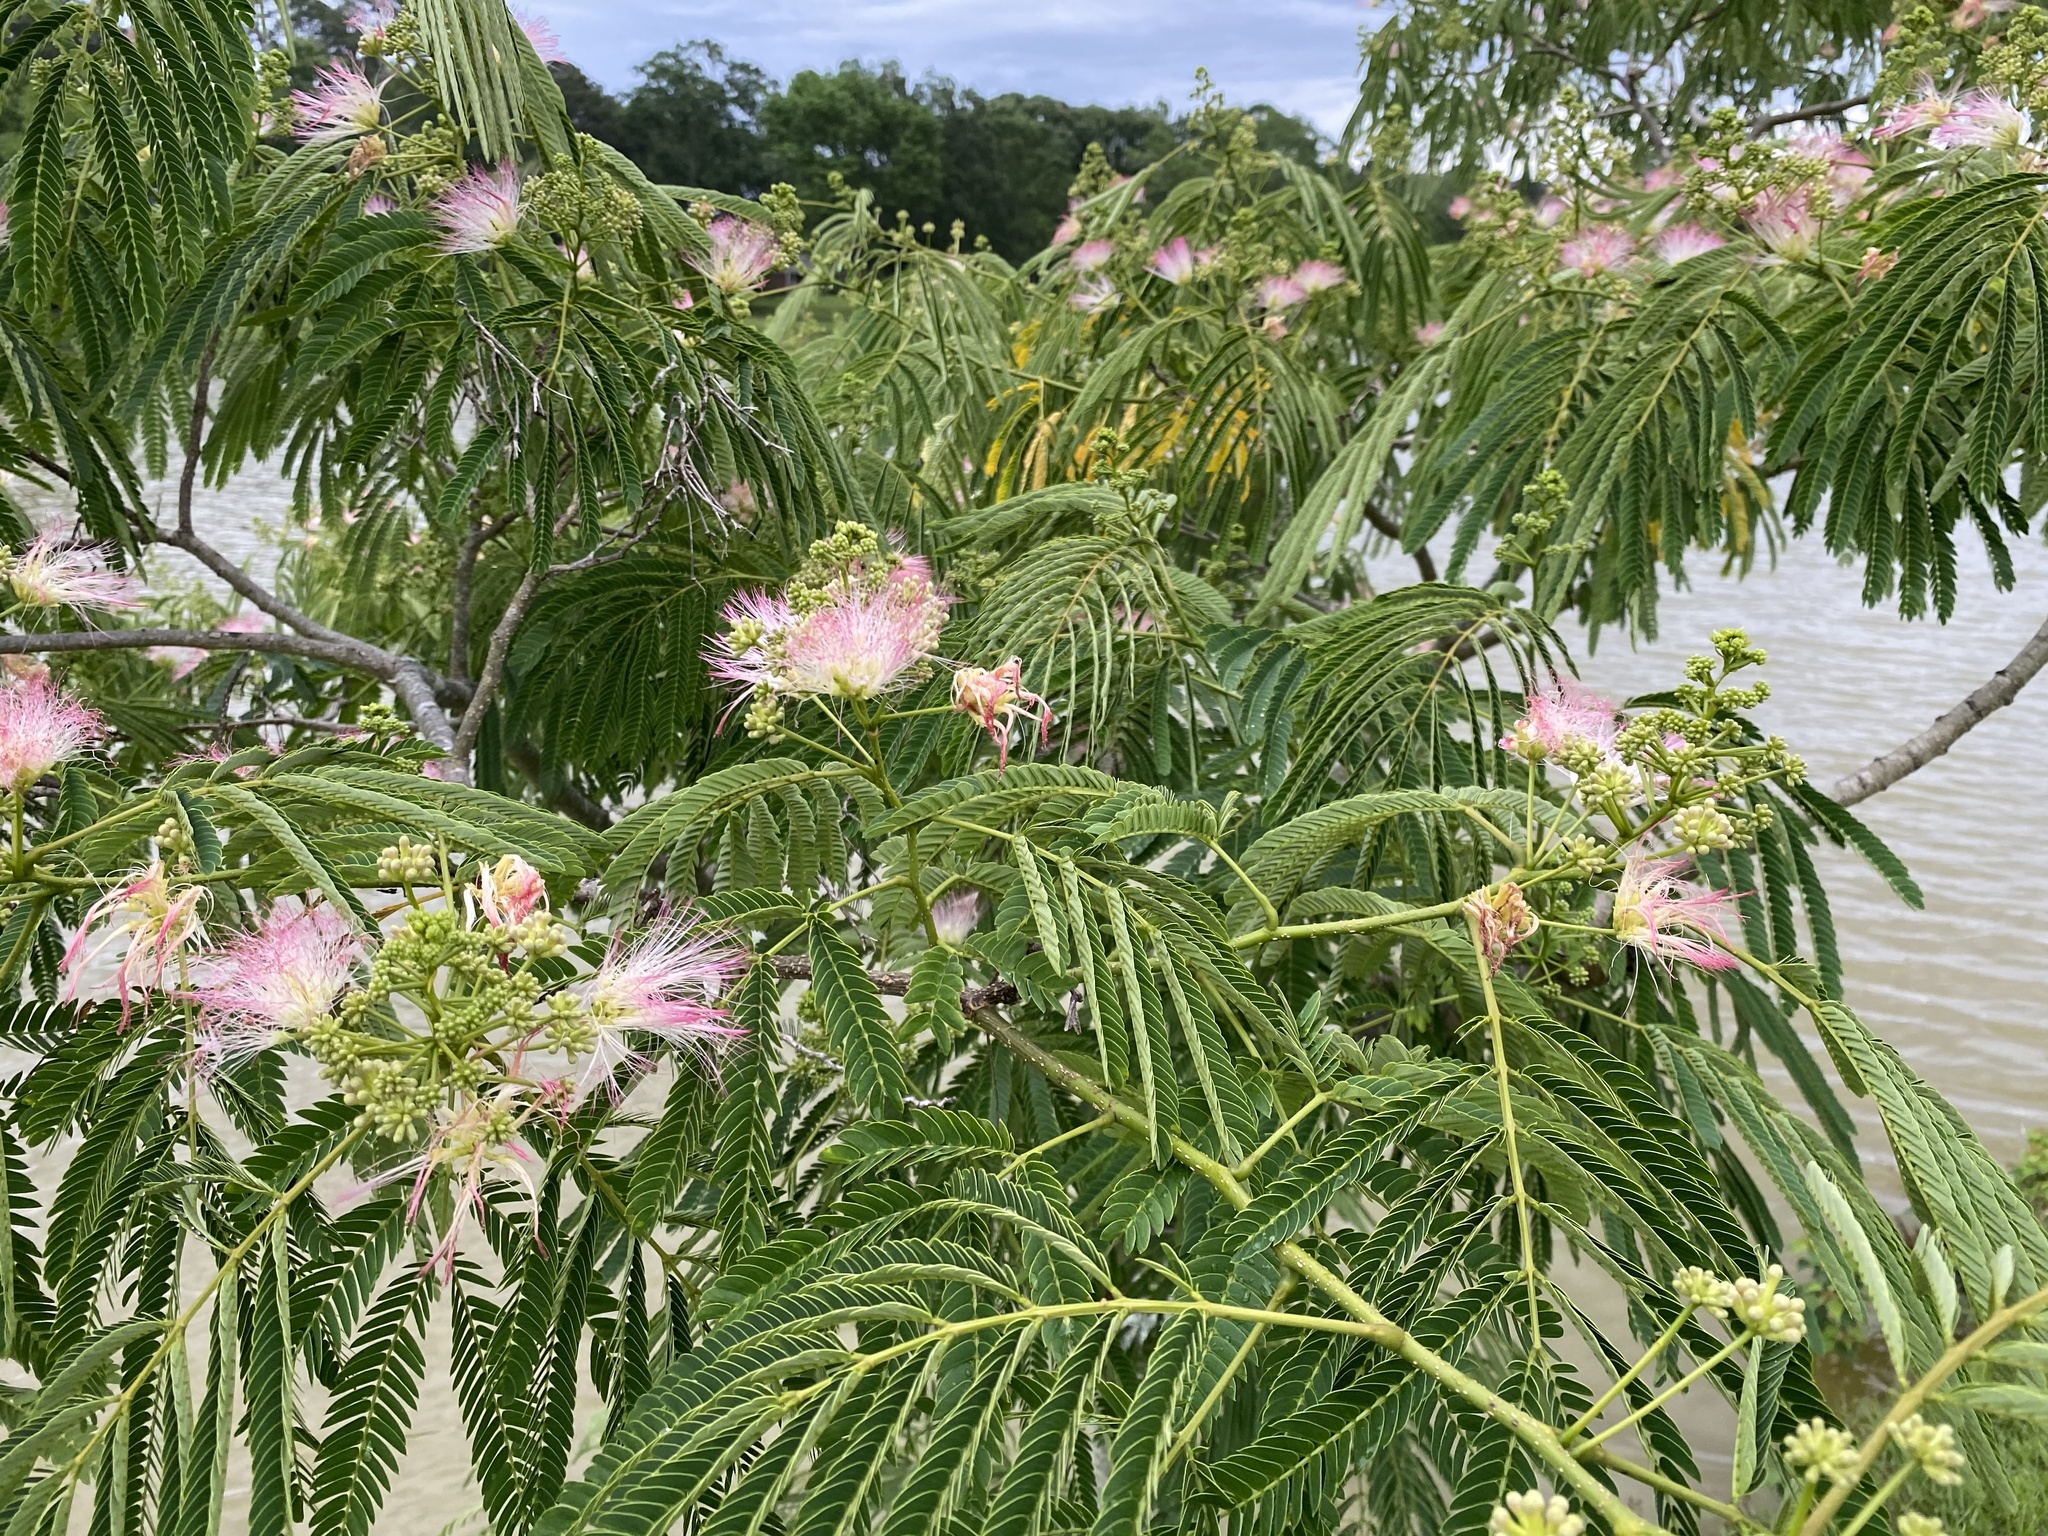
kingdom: Plantae
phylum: Tracheophyta
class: Magnoliopsida
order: Fabales
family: Fabaceae
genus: Albizia
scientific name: Albizia julibrissin
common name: Silktree
